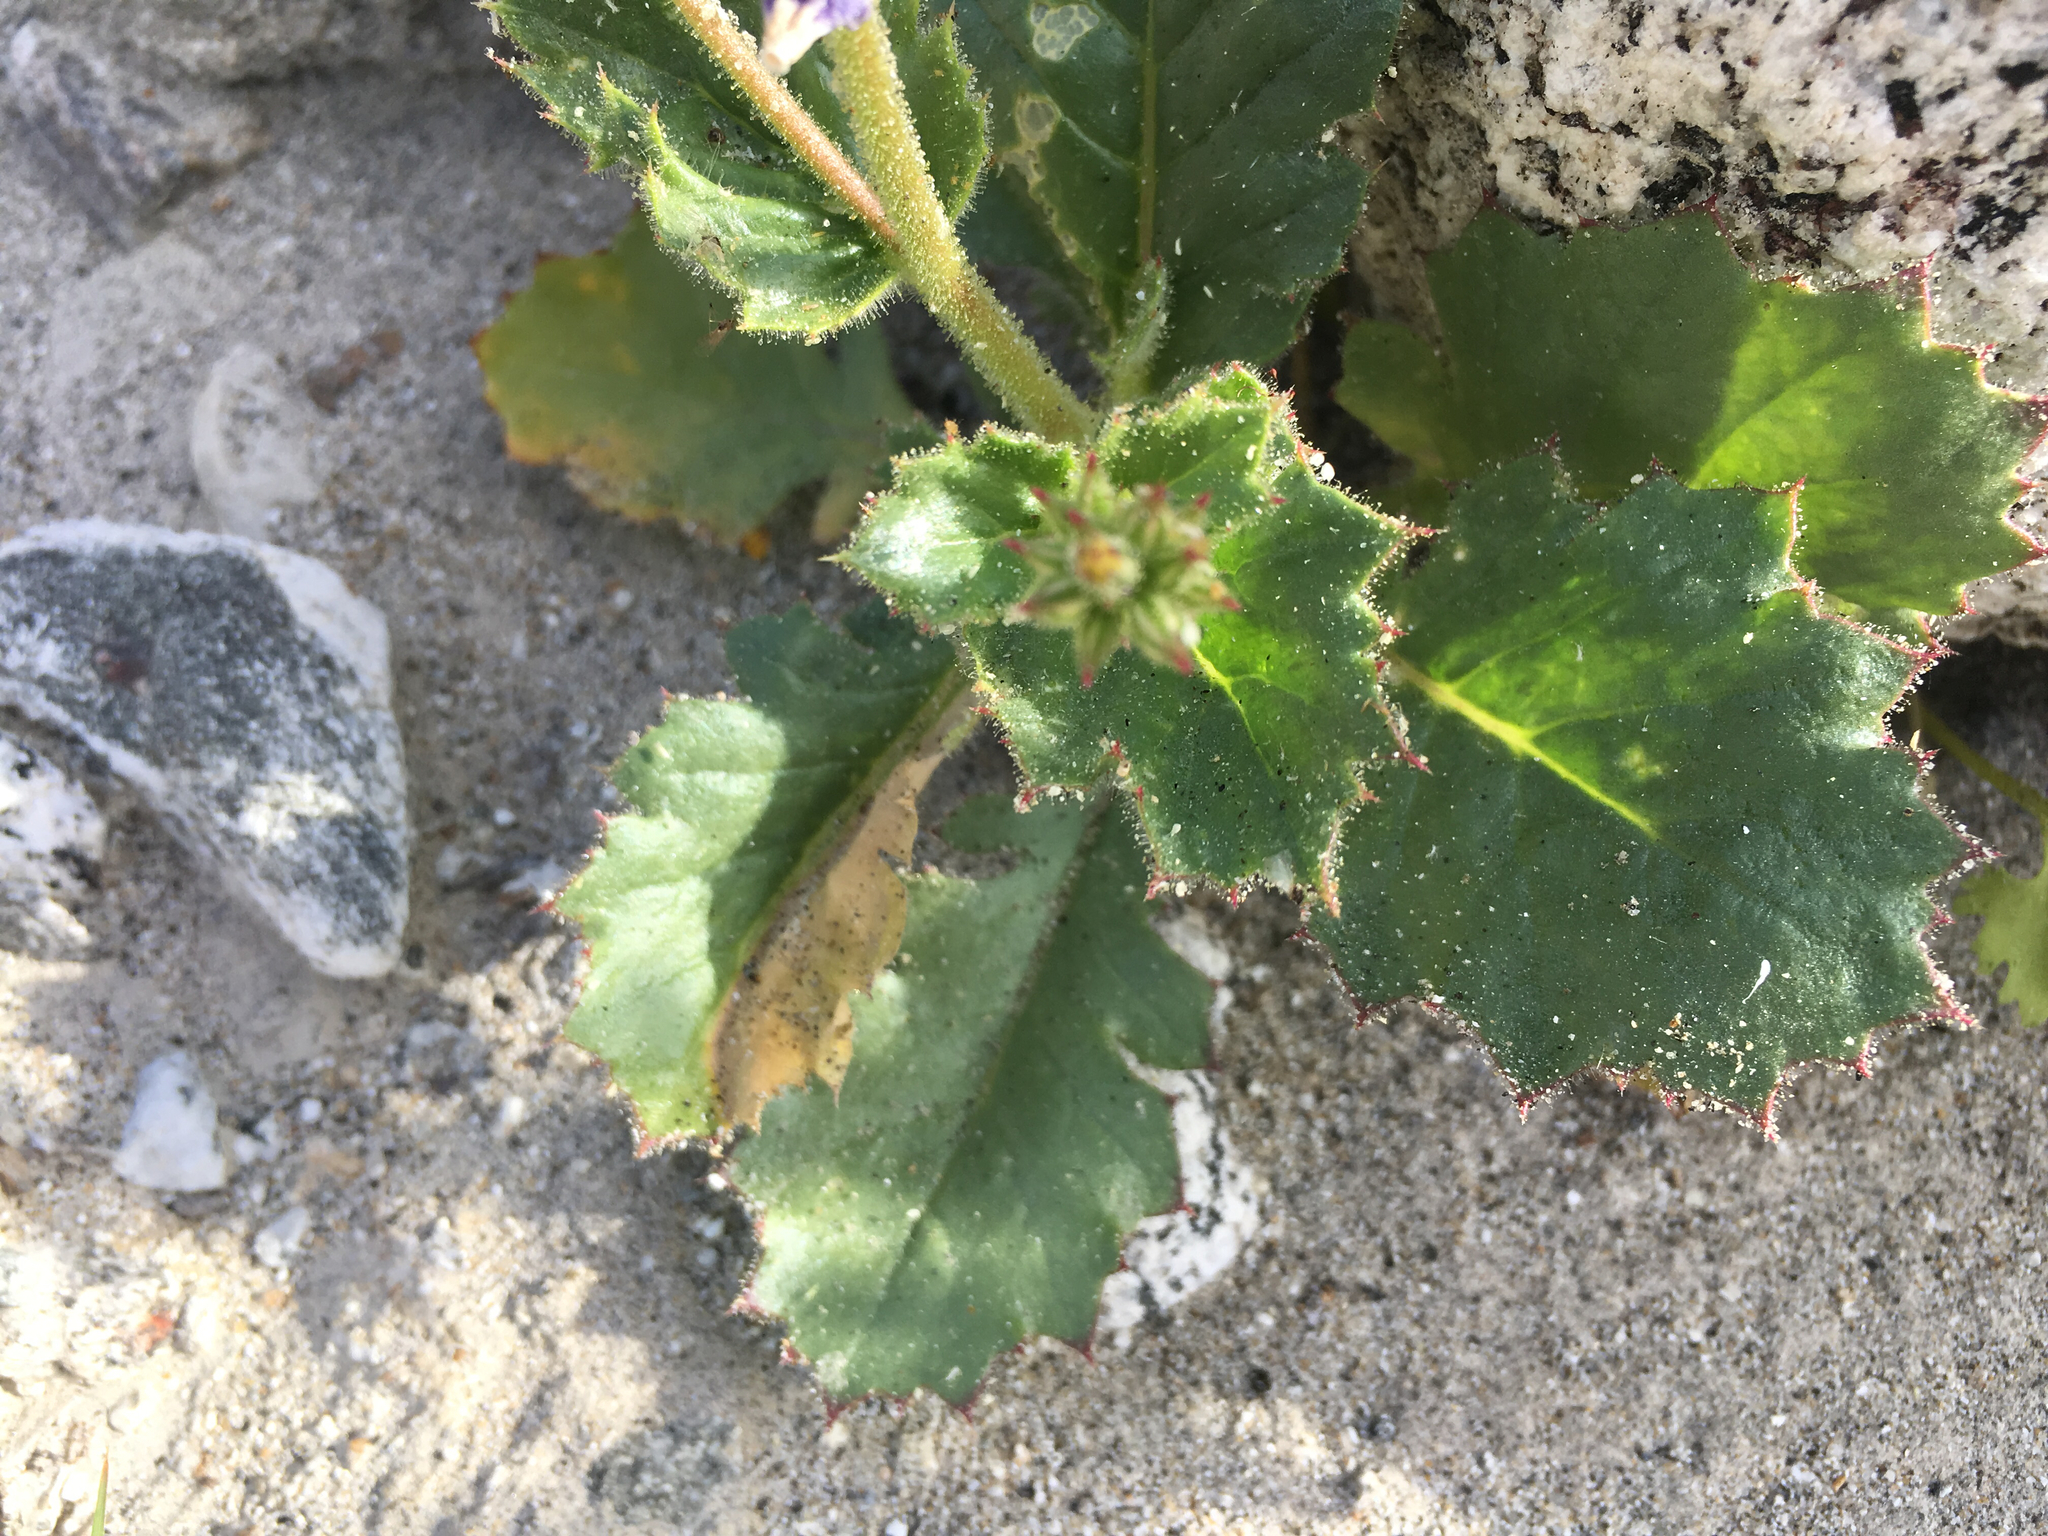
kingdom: Plantae
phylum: Tracheophyta
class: Magnoliopsida
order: Ericales
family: Polemoniaceae
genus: Aliciella
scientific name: Aliciella latifolia
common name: Broad-leaf gilia
